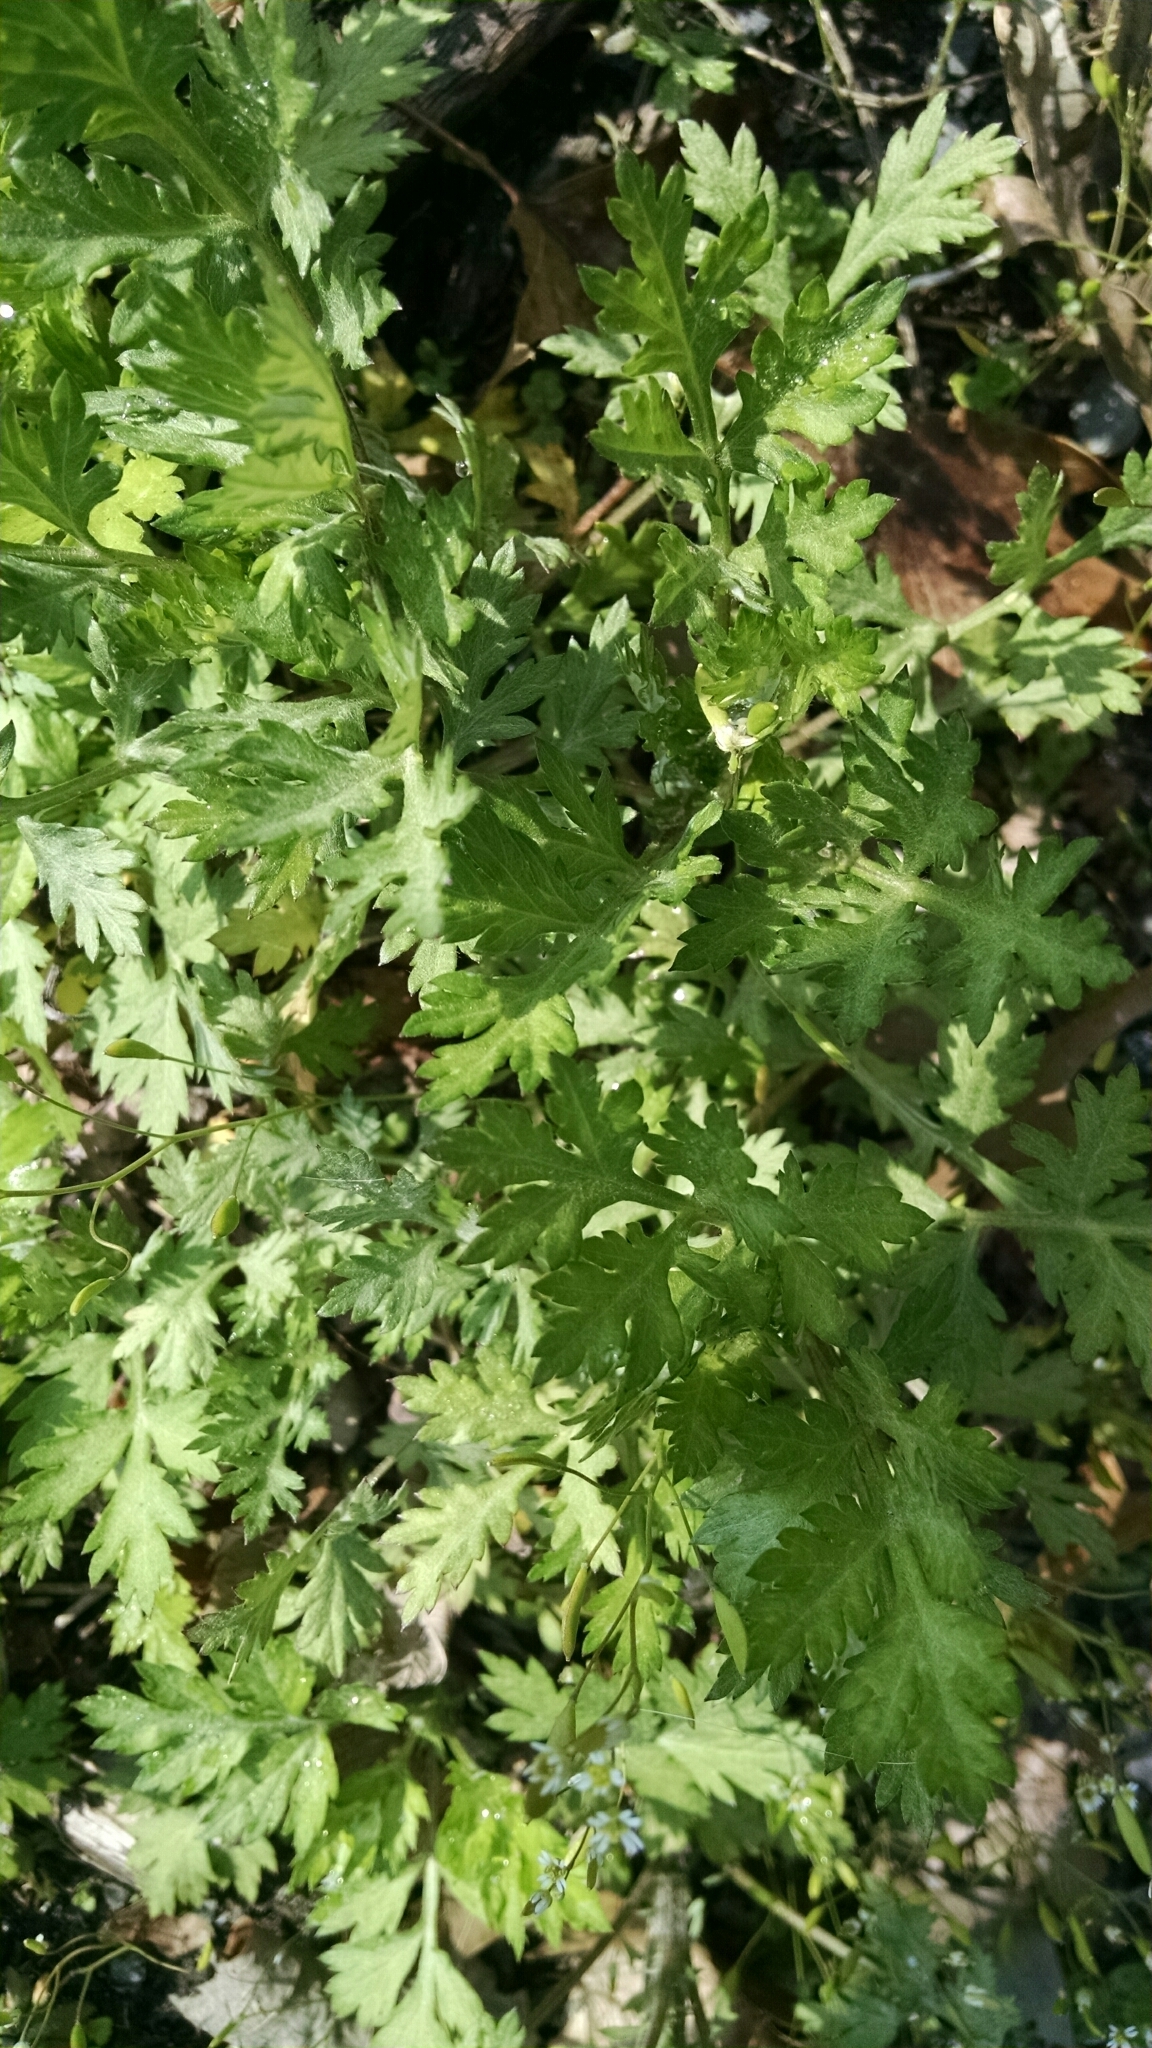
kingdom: Plantae
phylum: Tracheophyta
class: Magnoliopsida
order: Asterales
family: Asteraceae
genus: Artemisia
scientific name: Artemisia vulgaris
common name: Mugwort
